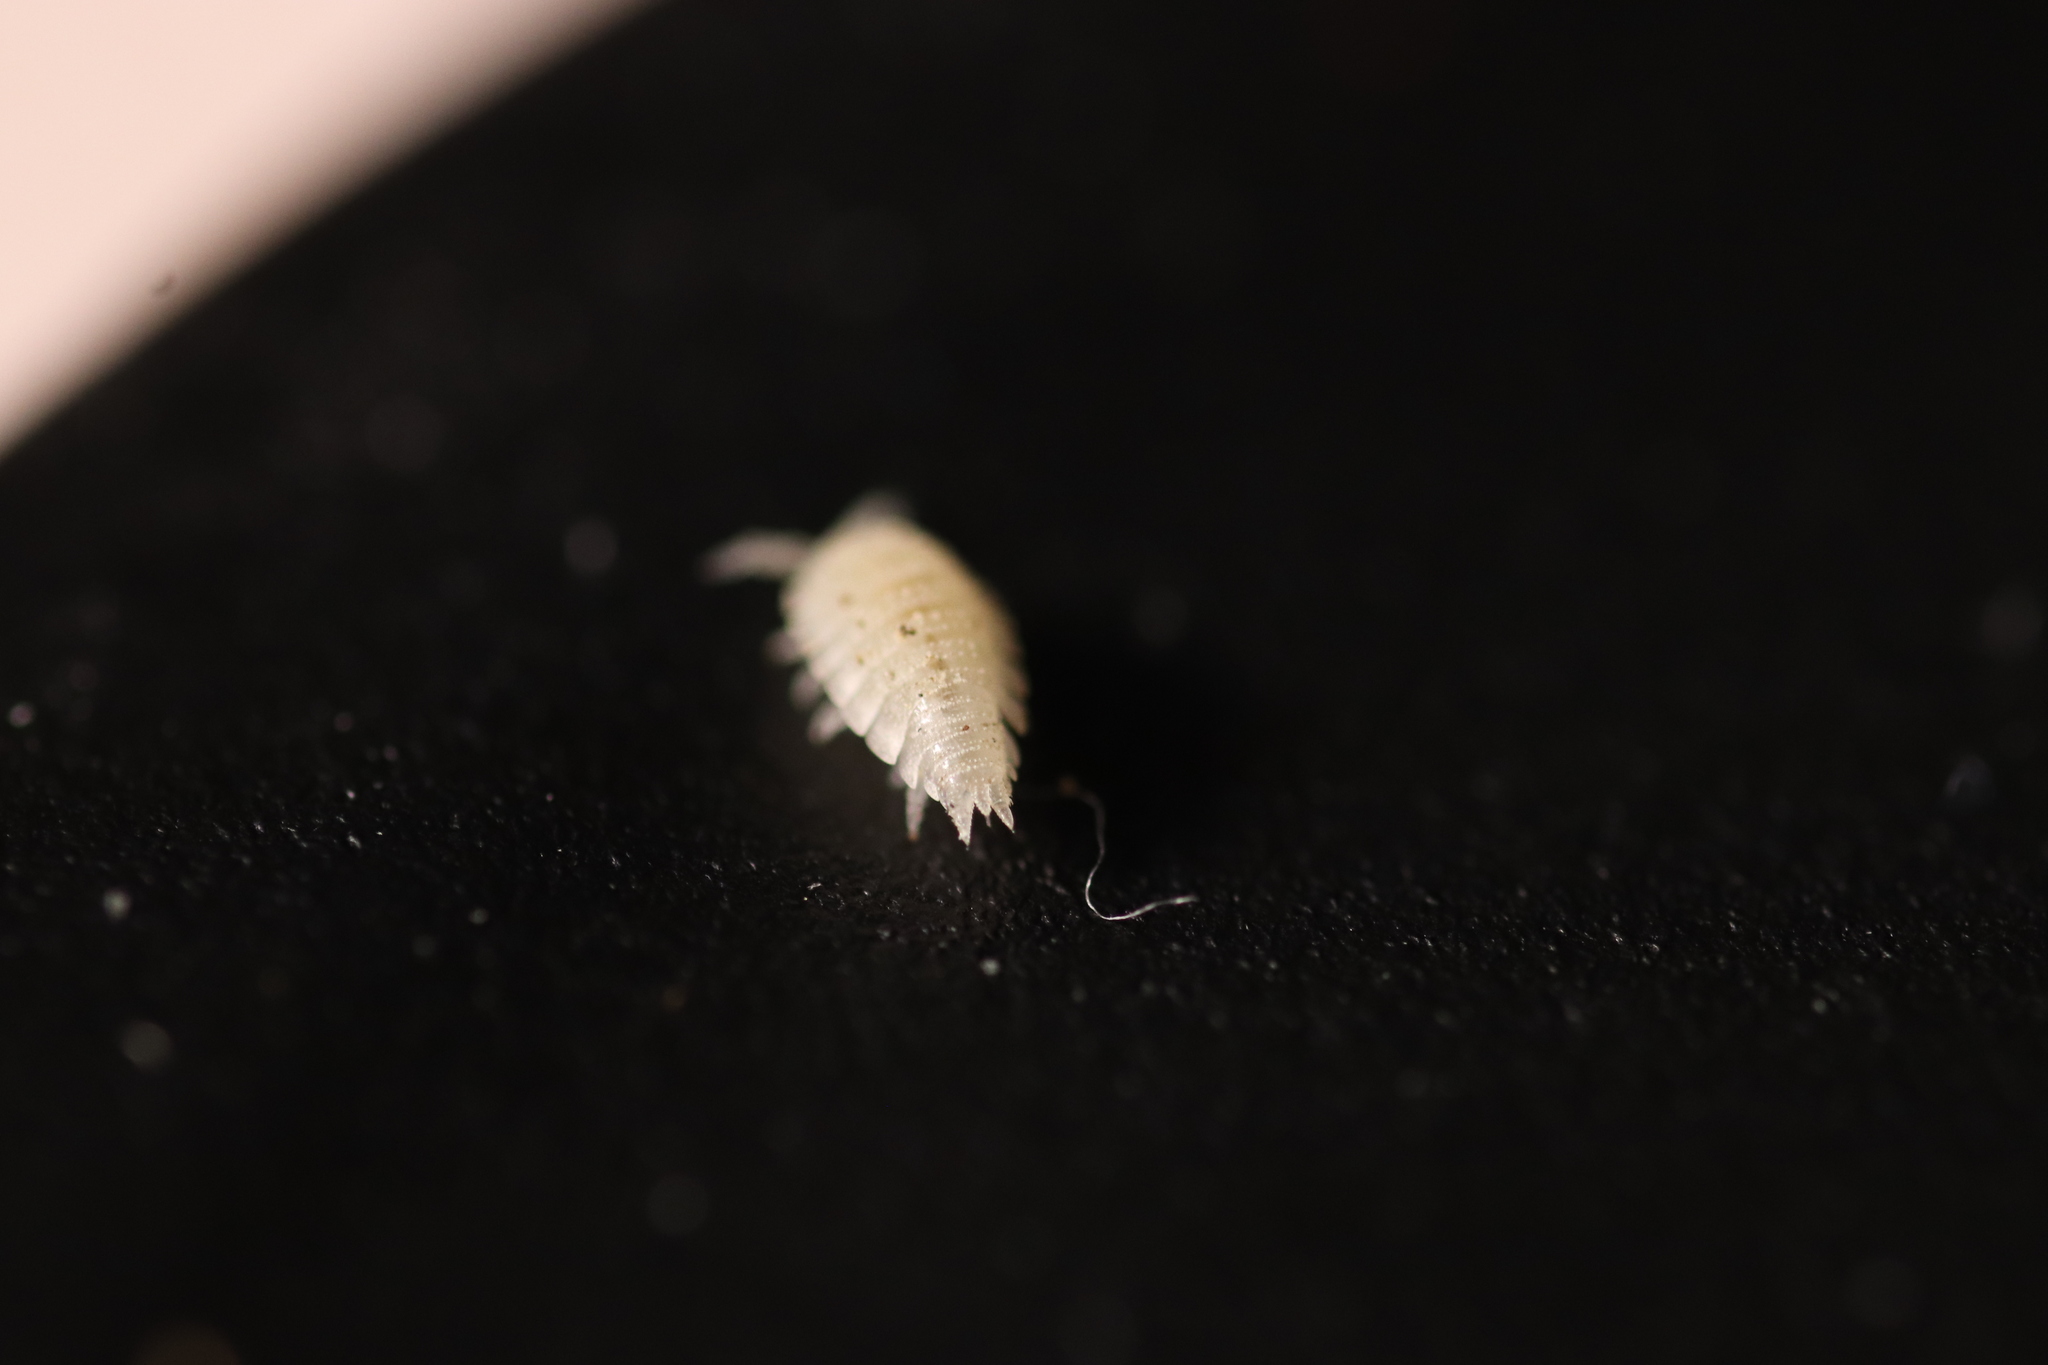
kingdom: Animalia
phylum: Arthropoda
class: Malacostraca
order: Isopoda
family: Platyarthridae
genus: Platyarthrus
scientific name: Platyarthrus caudatus
